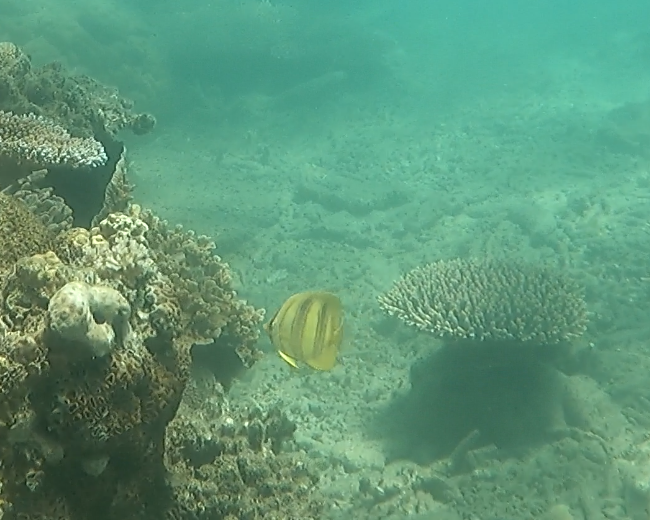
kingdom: Animalia
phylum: Chordata
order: Perciformes
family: Chaetodontidae
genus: Chaetodon
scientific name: Chaetodon rainfordi
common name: Rainford's butterflyfish
